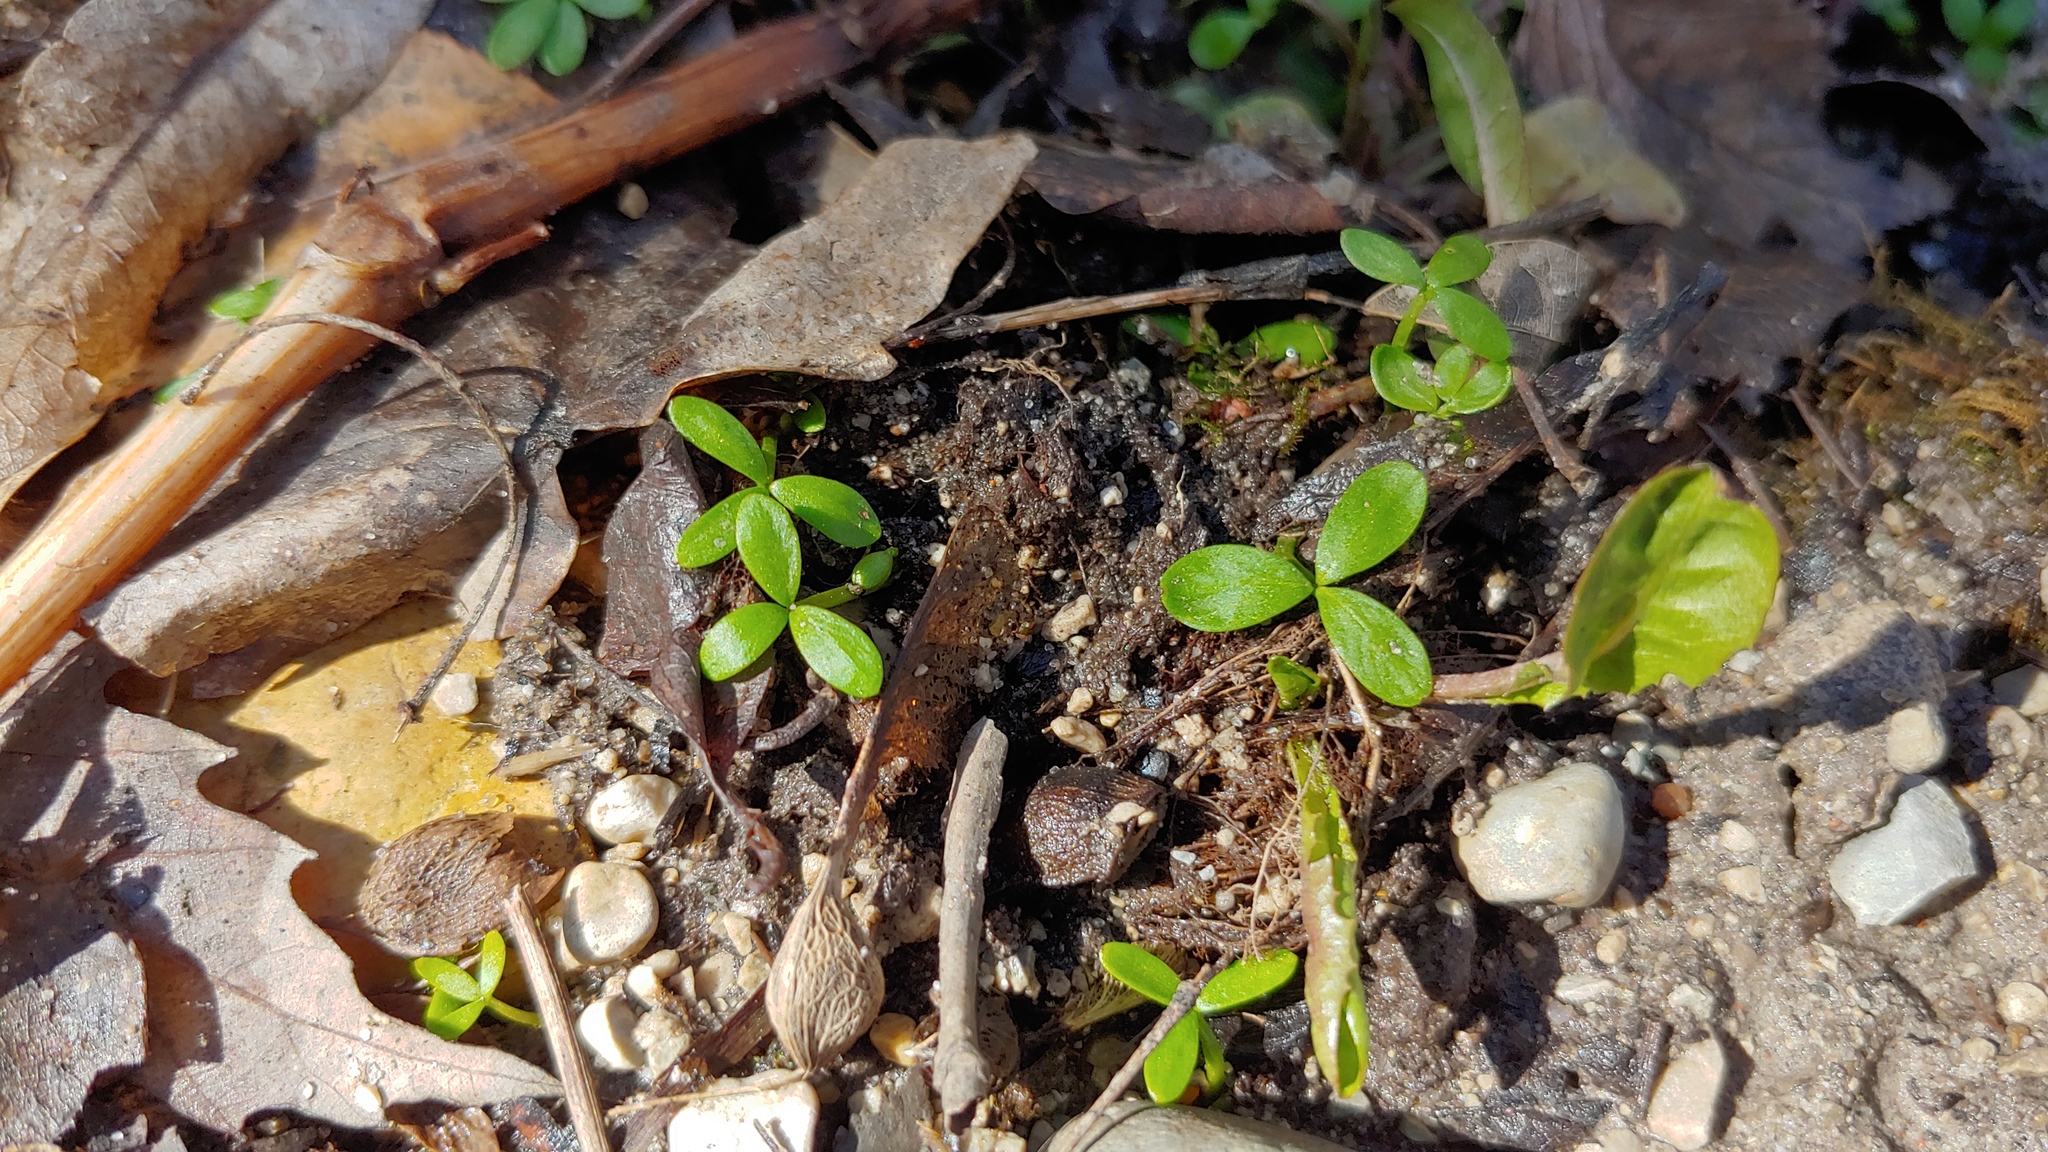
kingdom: Plantae
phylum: Tracheophyta
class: Magnoliopsida
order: Brassicales
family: Limnanthaceae
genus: Floerkea
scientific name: Floerkea proserpinacoides
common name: False mermaid
